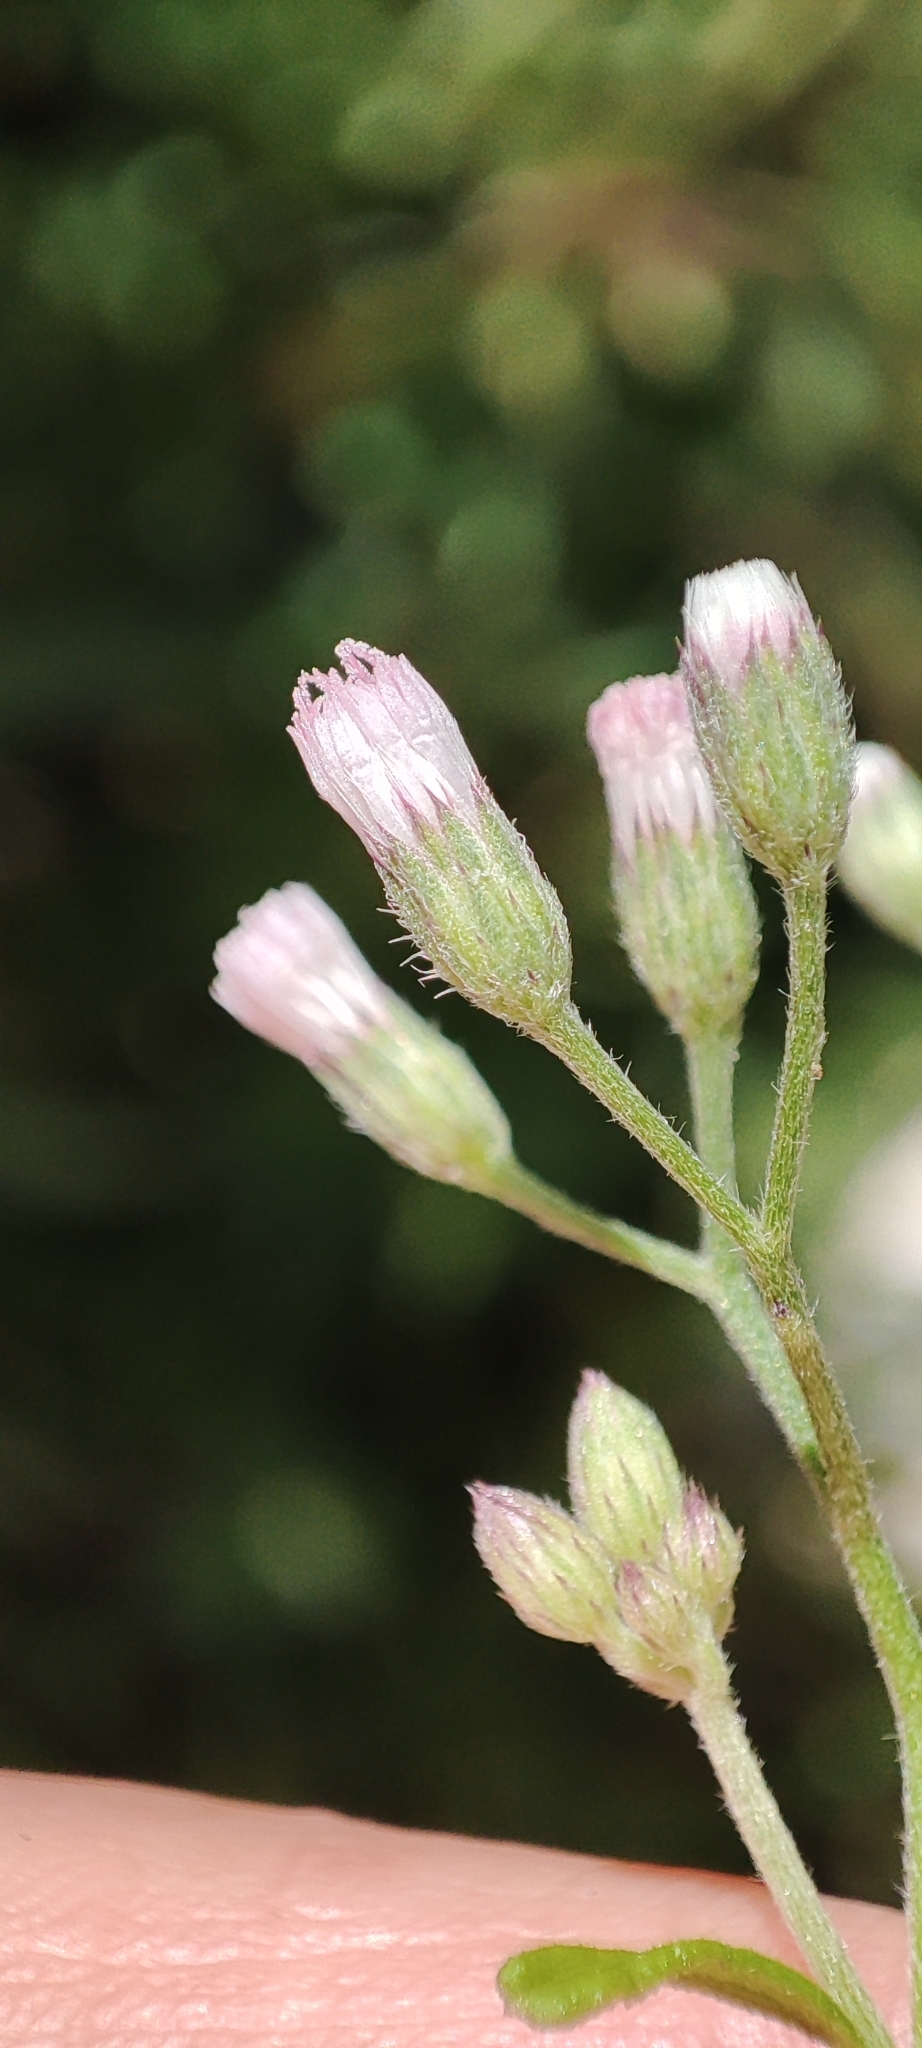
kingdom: Plantae
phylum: Tracheophyta
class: Magnoliopsida
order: Asterales
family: Asteraceae
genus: Cyanthillium
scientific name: Cyanthillium cinereum
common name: Little ironweed
